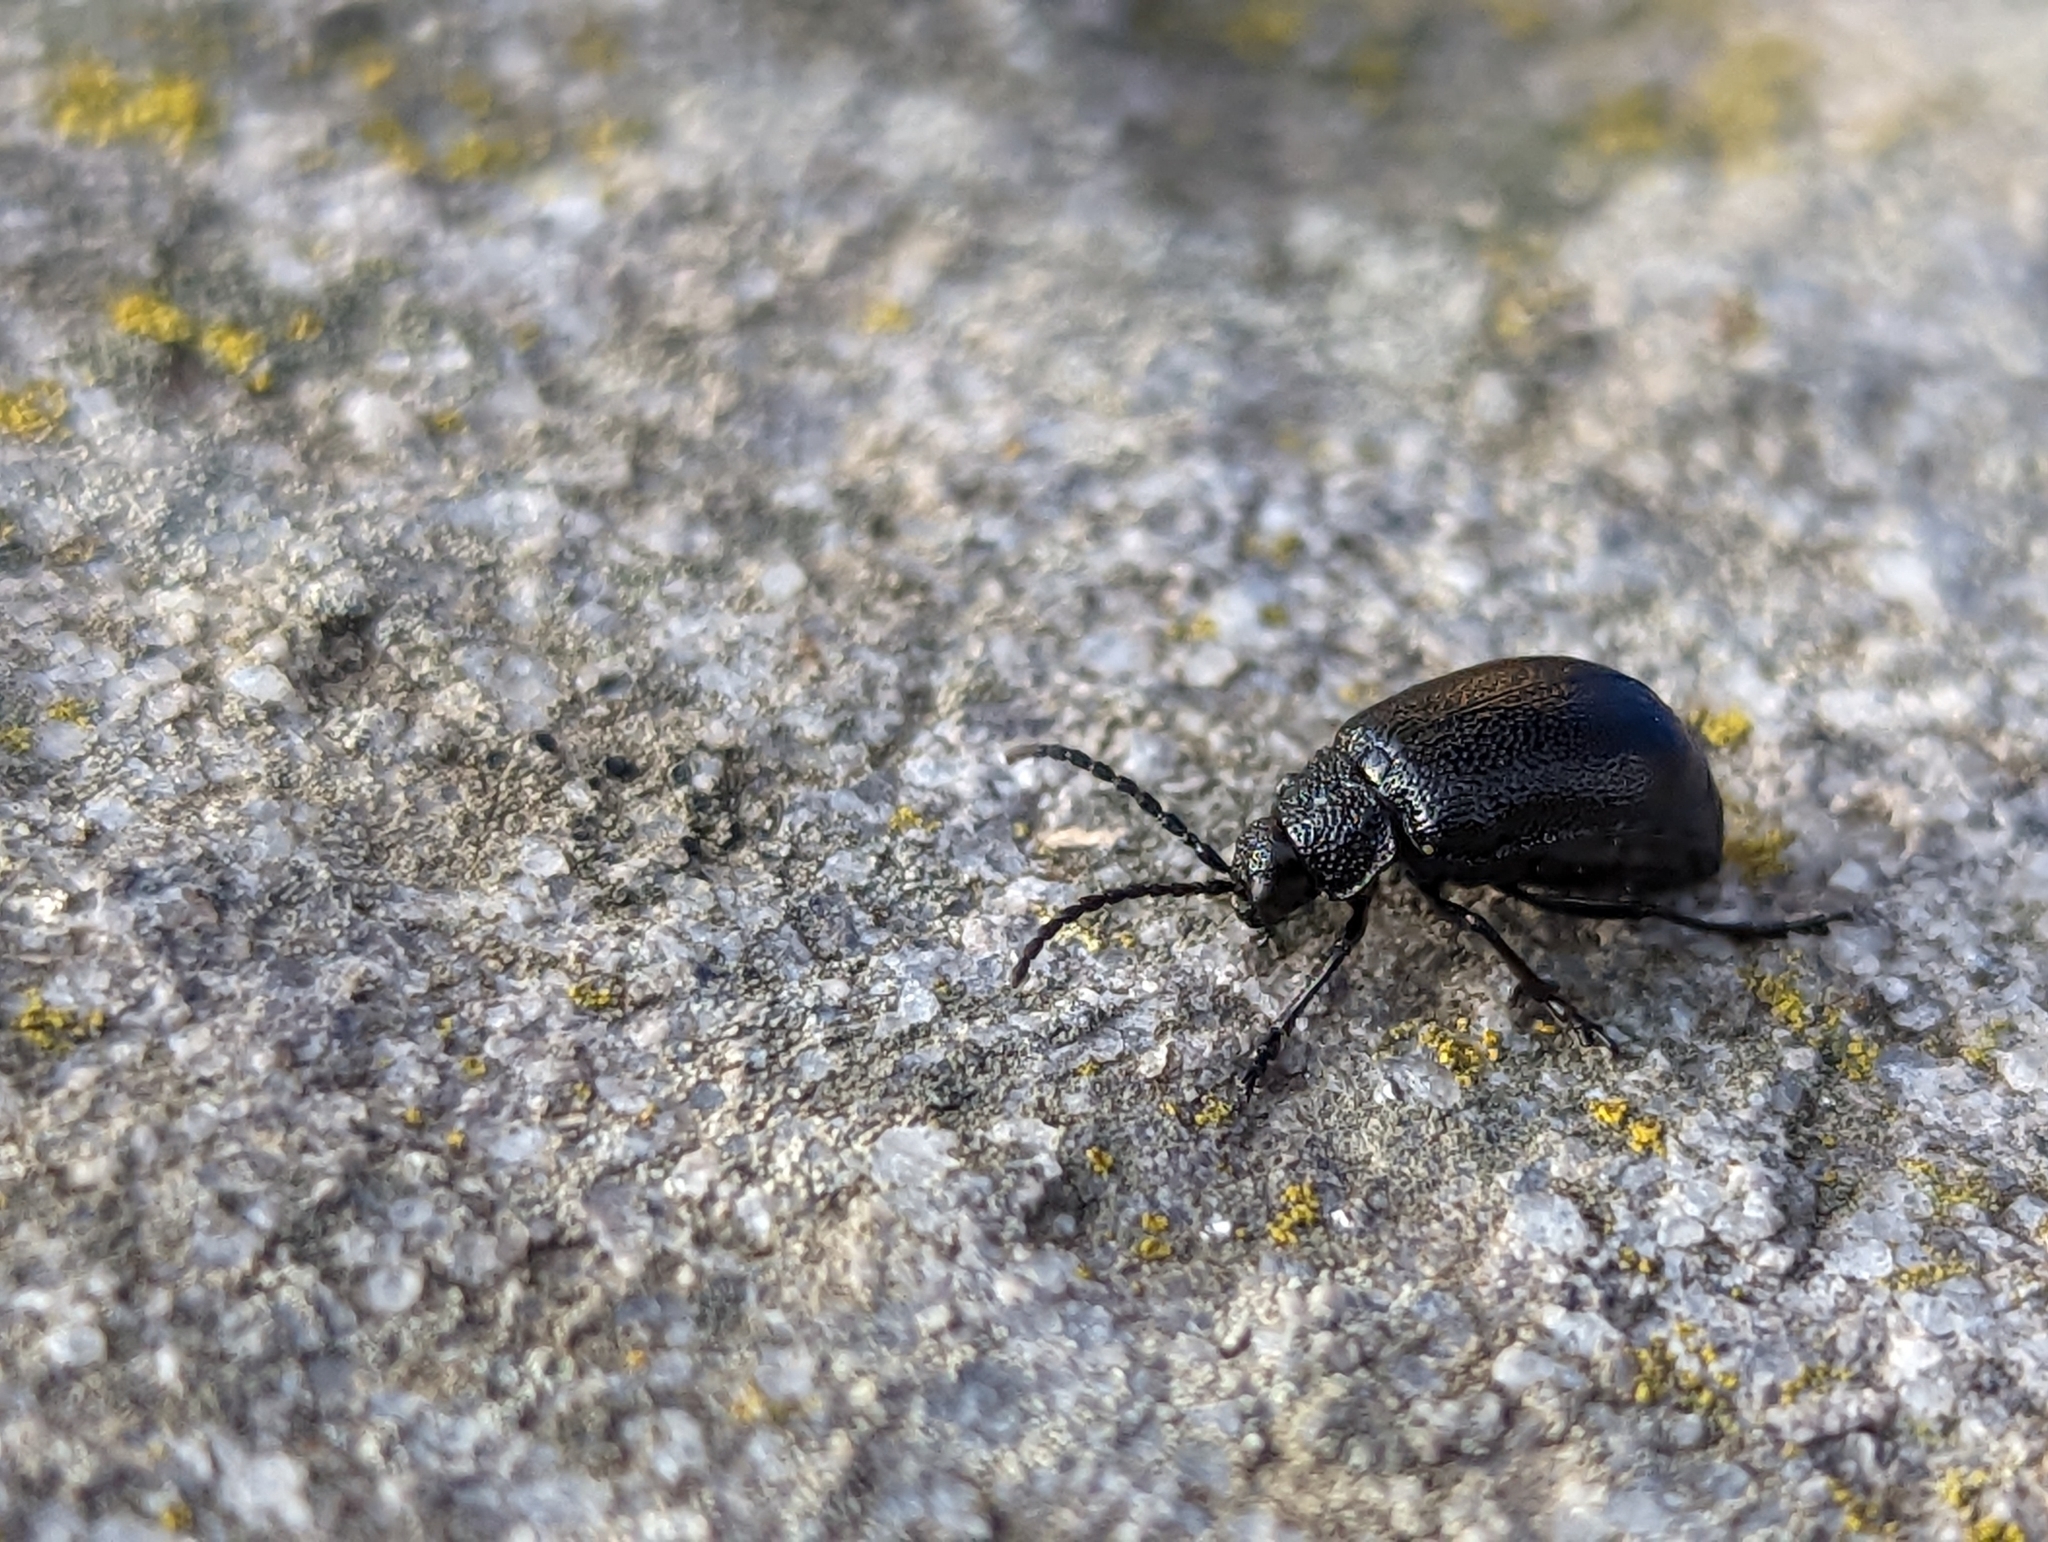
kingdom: Animalia
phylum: Arthropoda
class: Insecta
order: Coleoptera
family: Chrysomelidae
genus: Galeruca
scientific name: Galeruca tanaceti
